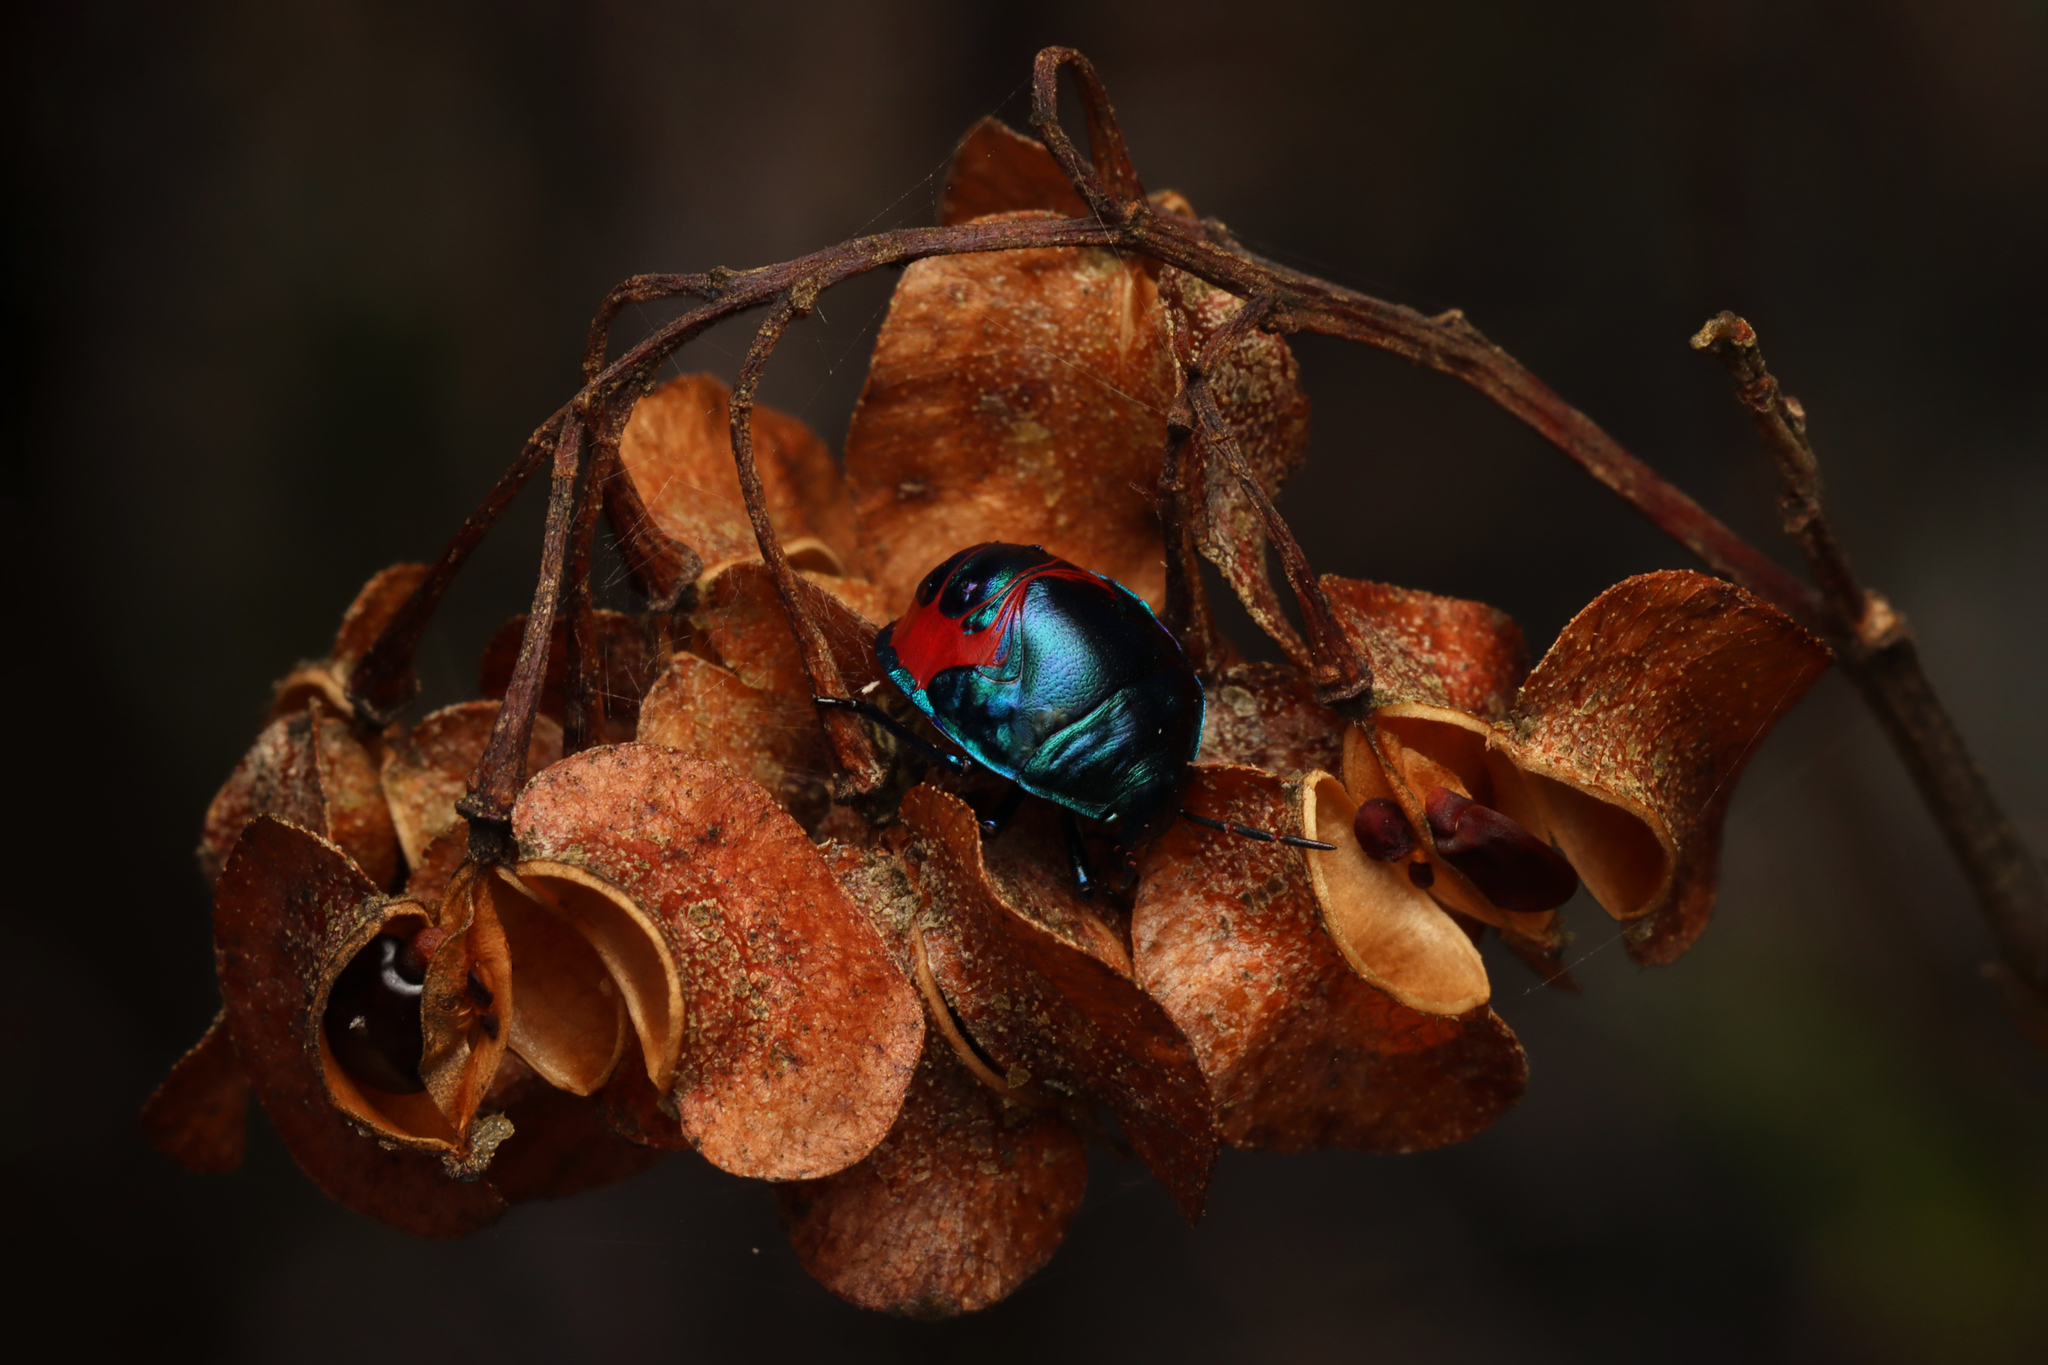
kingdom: Animalia
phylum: Arthropoda
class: Insecta
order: Hemiptera
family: Scutelleridae
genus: Choerocoris
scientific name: Choerocoris paganus
